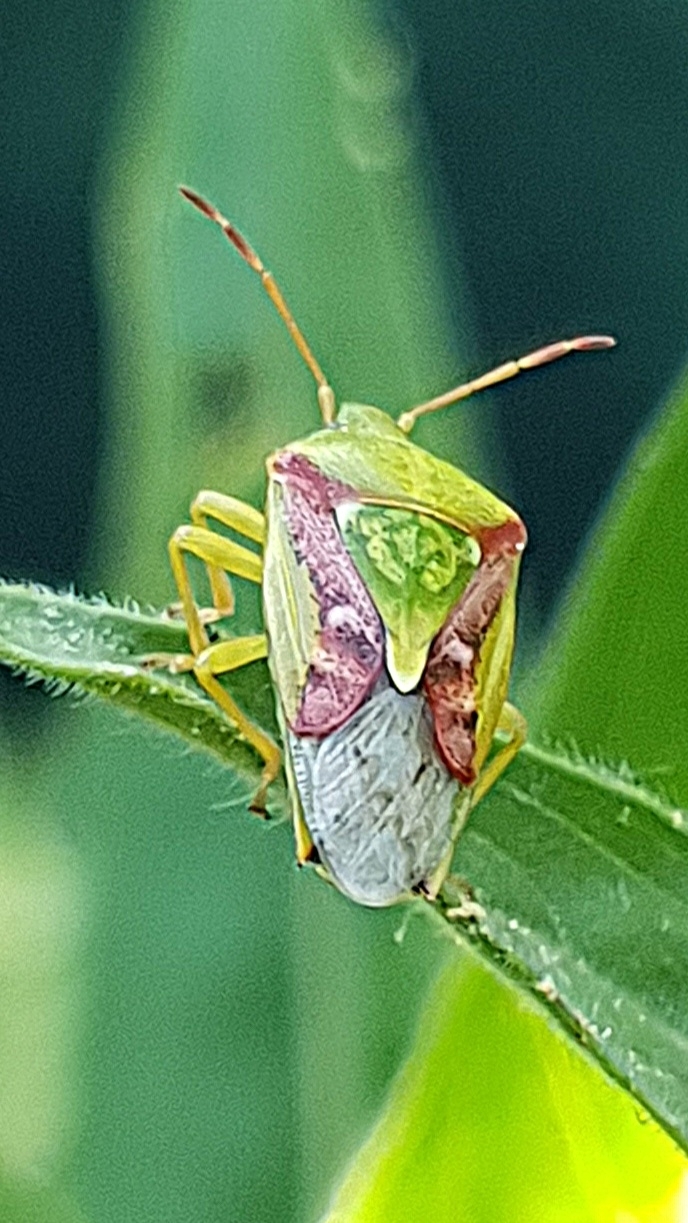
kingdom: Animalia
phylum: Arthropoda
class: Insecta
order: Hemiptera
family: Acanthosomatidae
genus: Cyphostethus
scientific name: Cyphostethus tristriatus
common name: Juniper shieldbug
